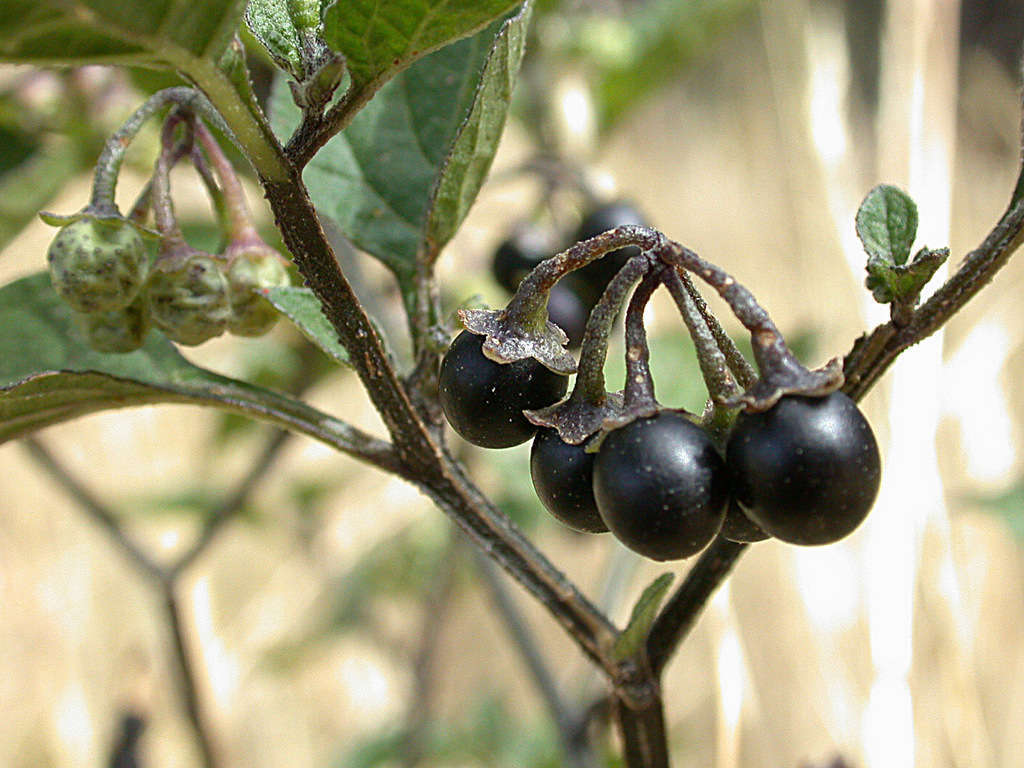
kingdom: Plantae
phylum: Tracheophyta
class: Magnoliopsida
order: Solanales
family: Solanaceae
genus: Solanum
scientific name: Solanum nigrum
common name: Black nightshade
